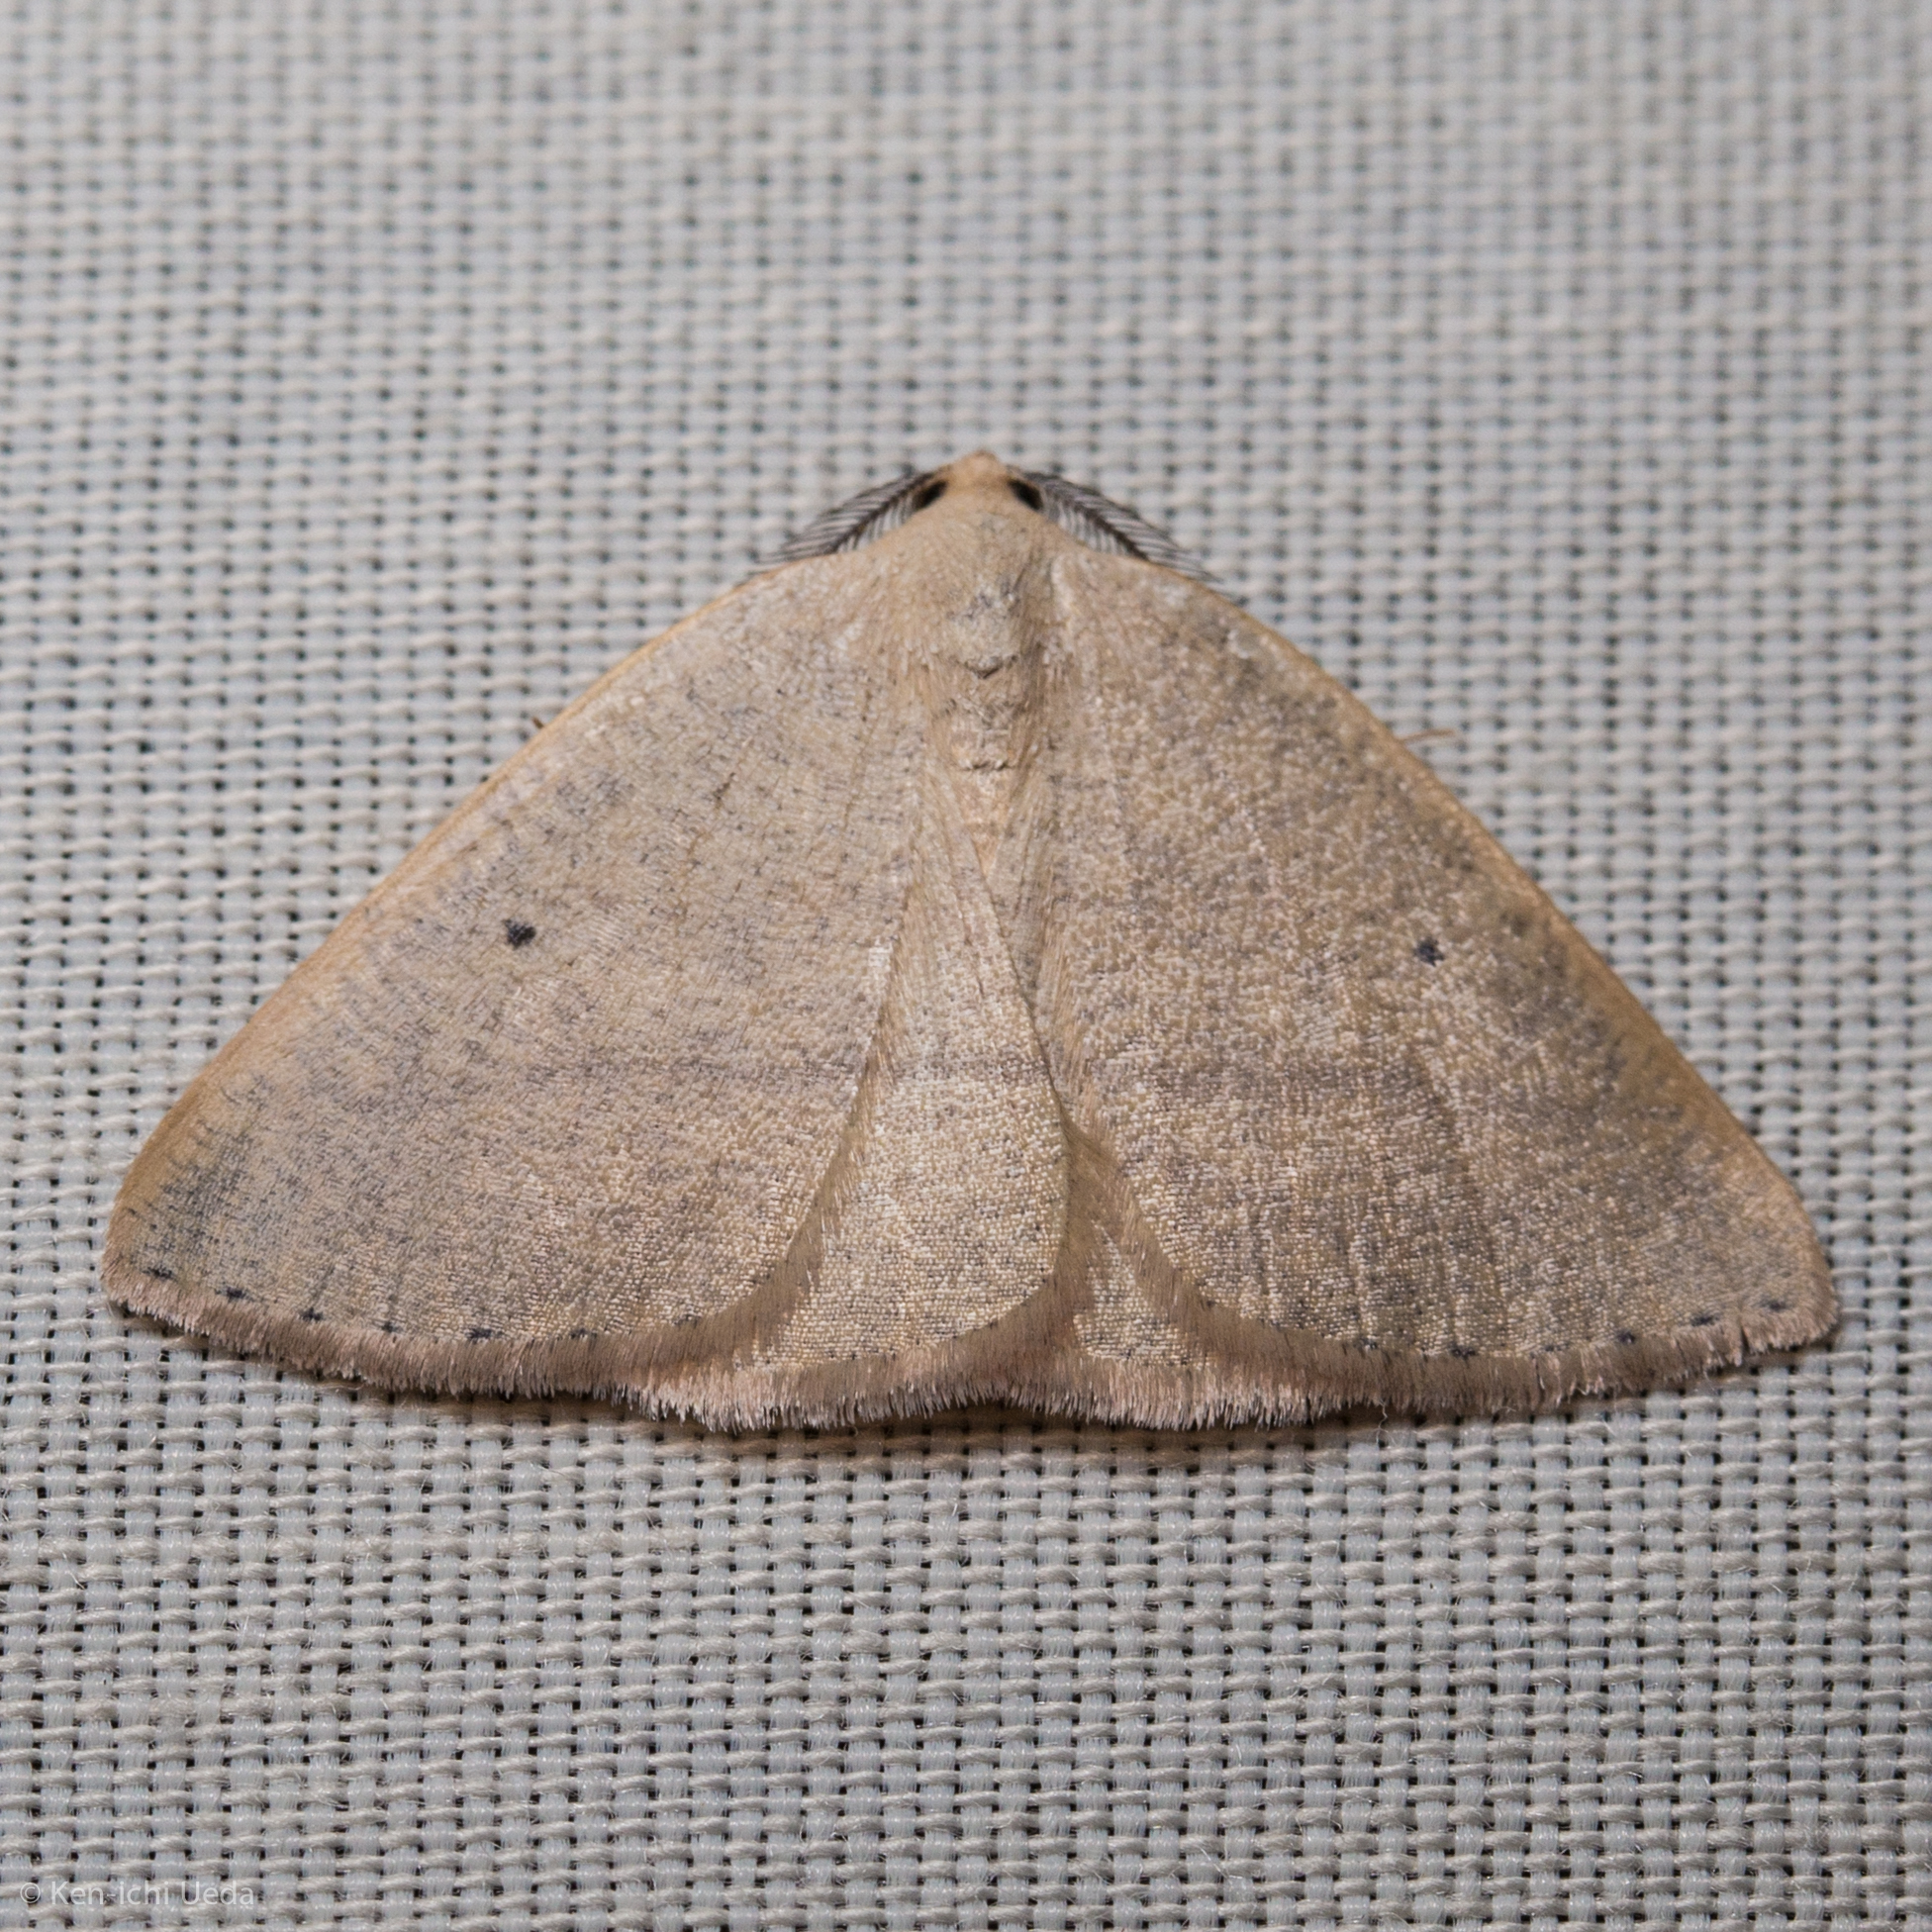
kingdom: Animalia
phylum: Arthropoda
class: Insecta
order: Lepidoptera
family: Geometridae
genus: Eudrepanulatrix
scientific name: Eudrepanulatrix rectifascia
